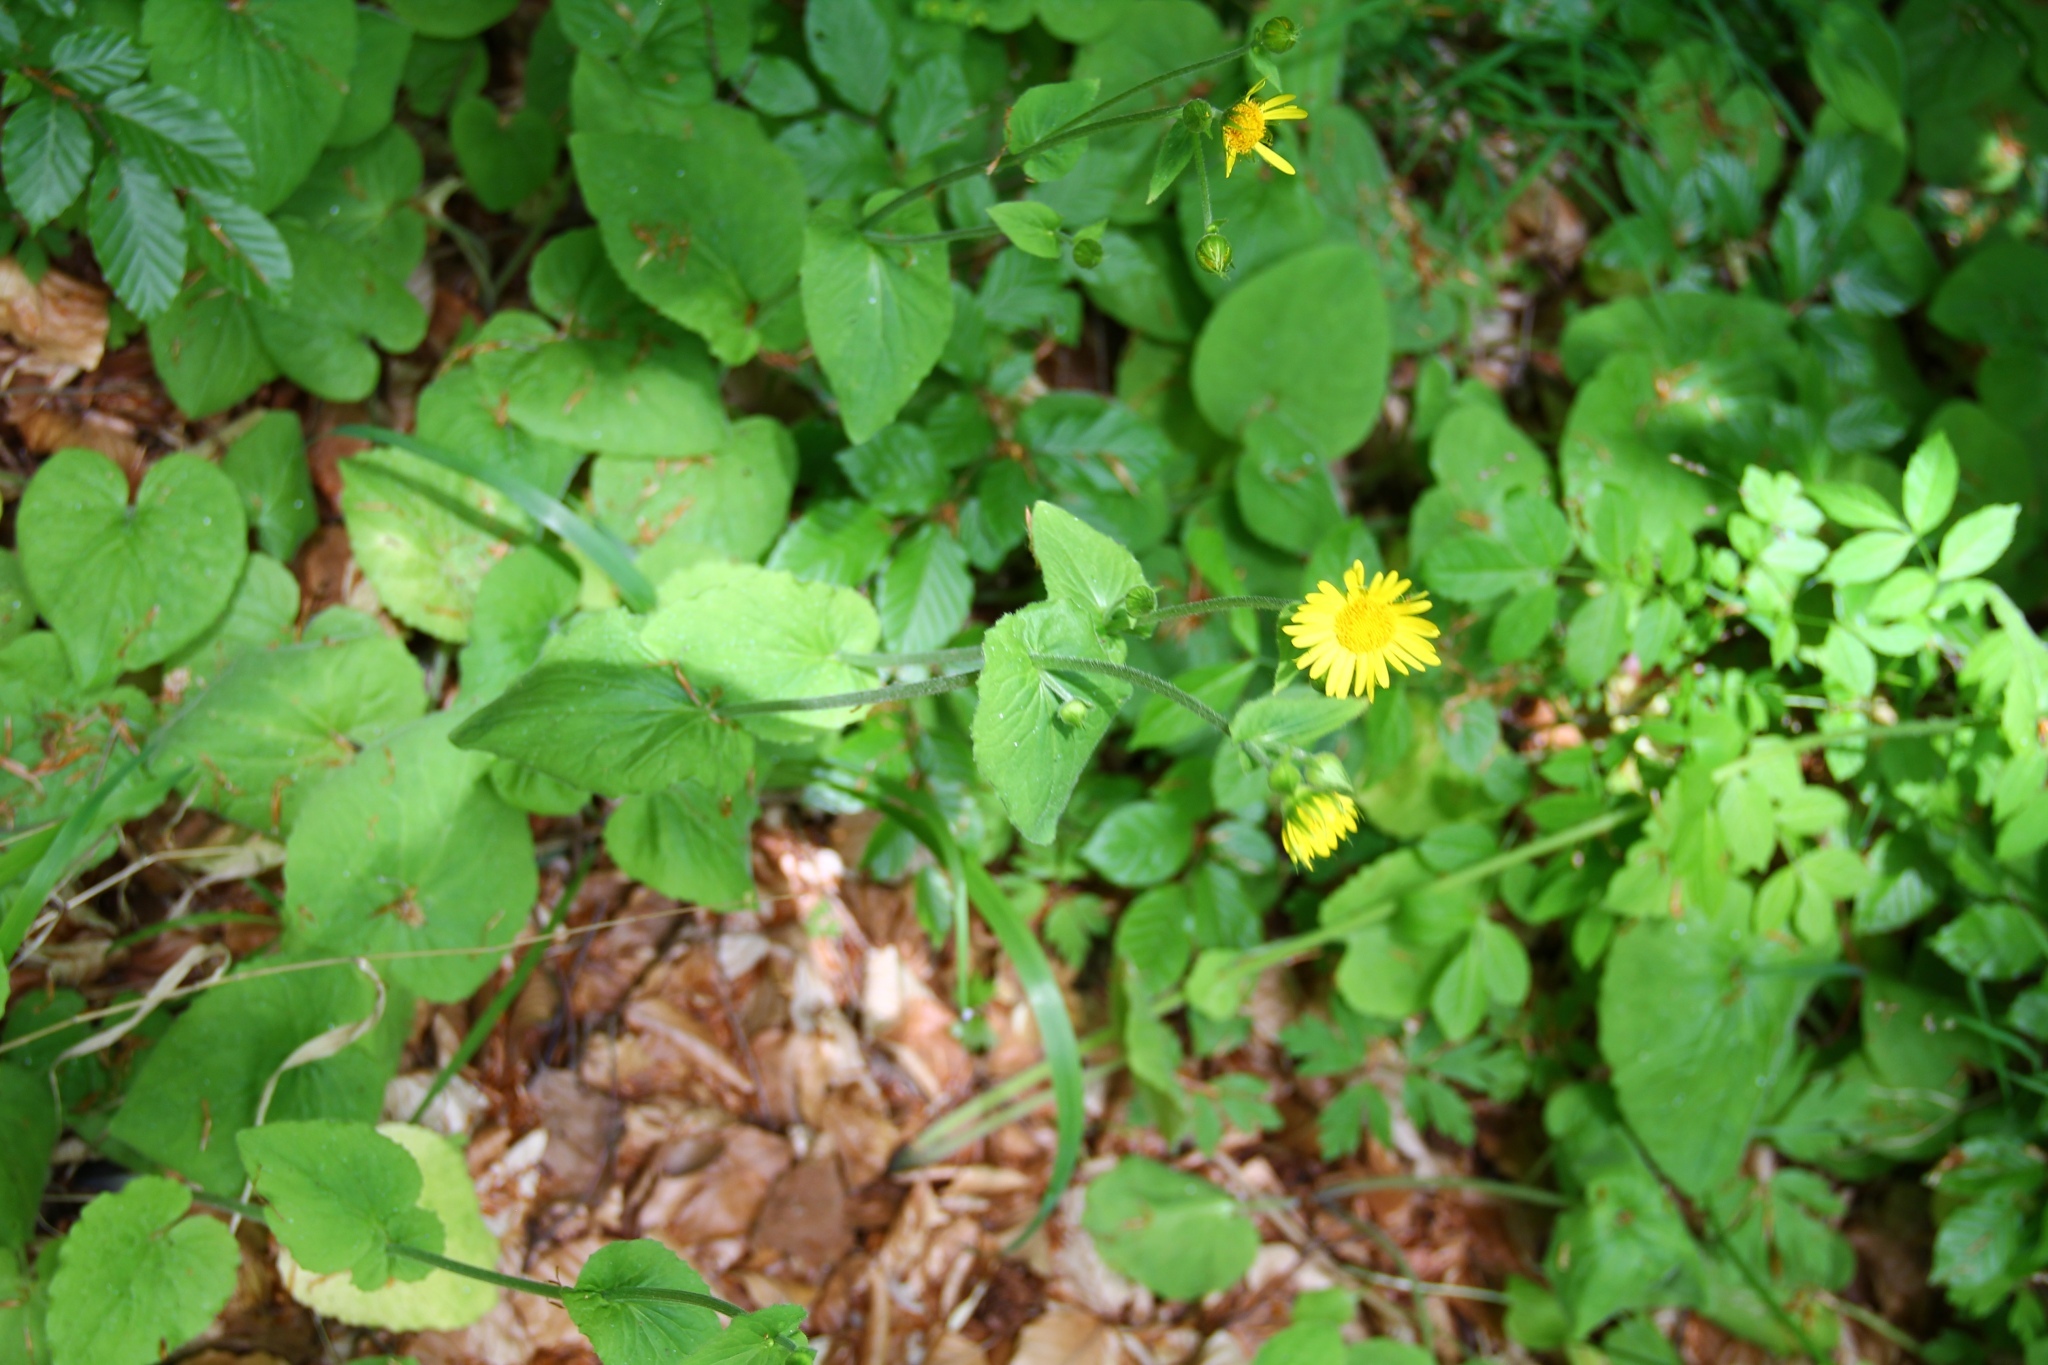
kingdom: Plantae
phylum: Tracheophyta
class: Magnoliopsida
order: Asterales
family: Asteraceae
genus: Doronicum
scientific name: Doronicum pardalianches
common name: Leopard's-bane
